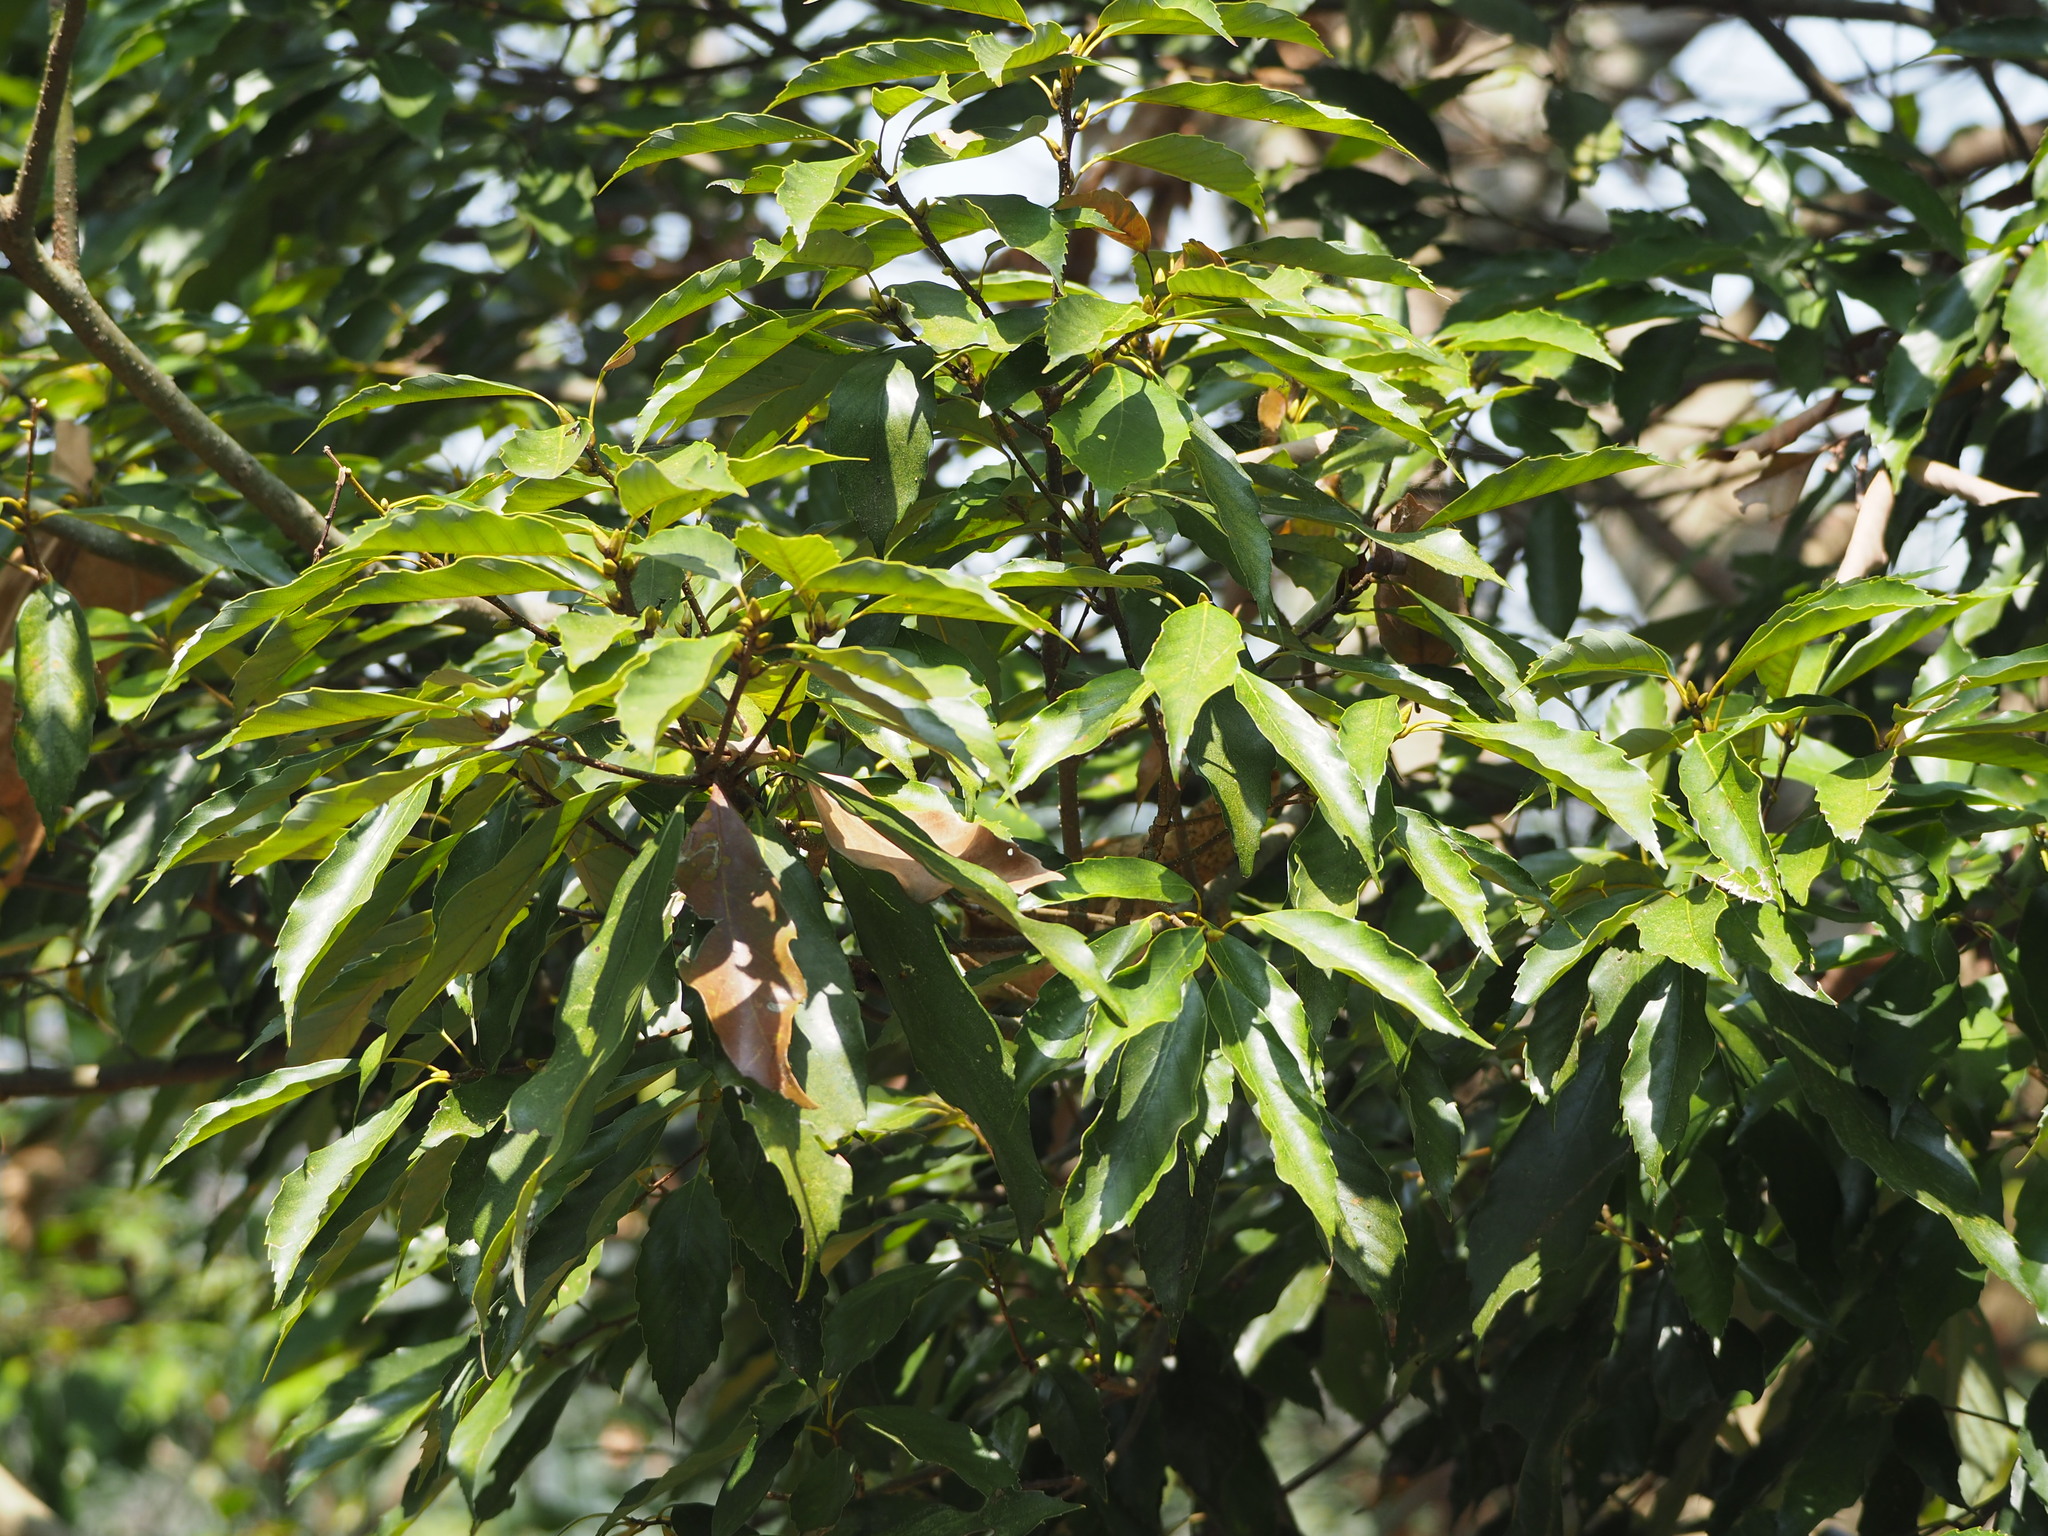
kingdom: Plantae
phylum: Tracheophyta
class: Magnoliopsida
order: Fagales
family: Fagaceae
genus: Quercus
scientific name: Quercus glauca
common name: Ring-cup oak
